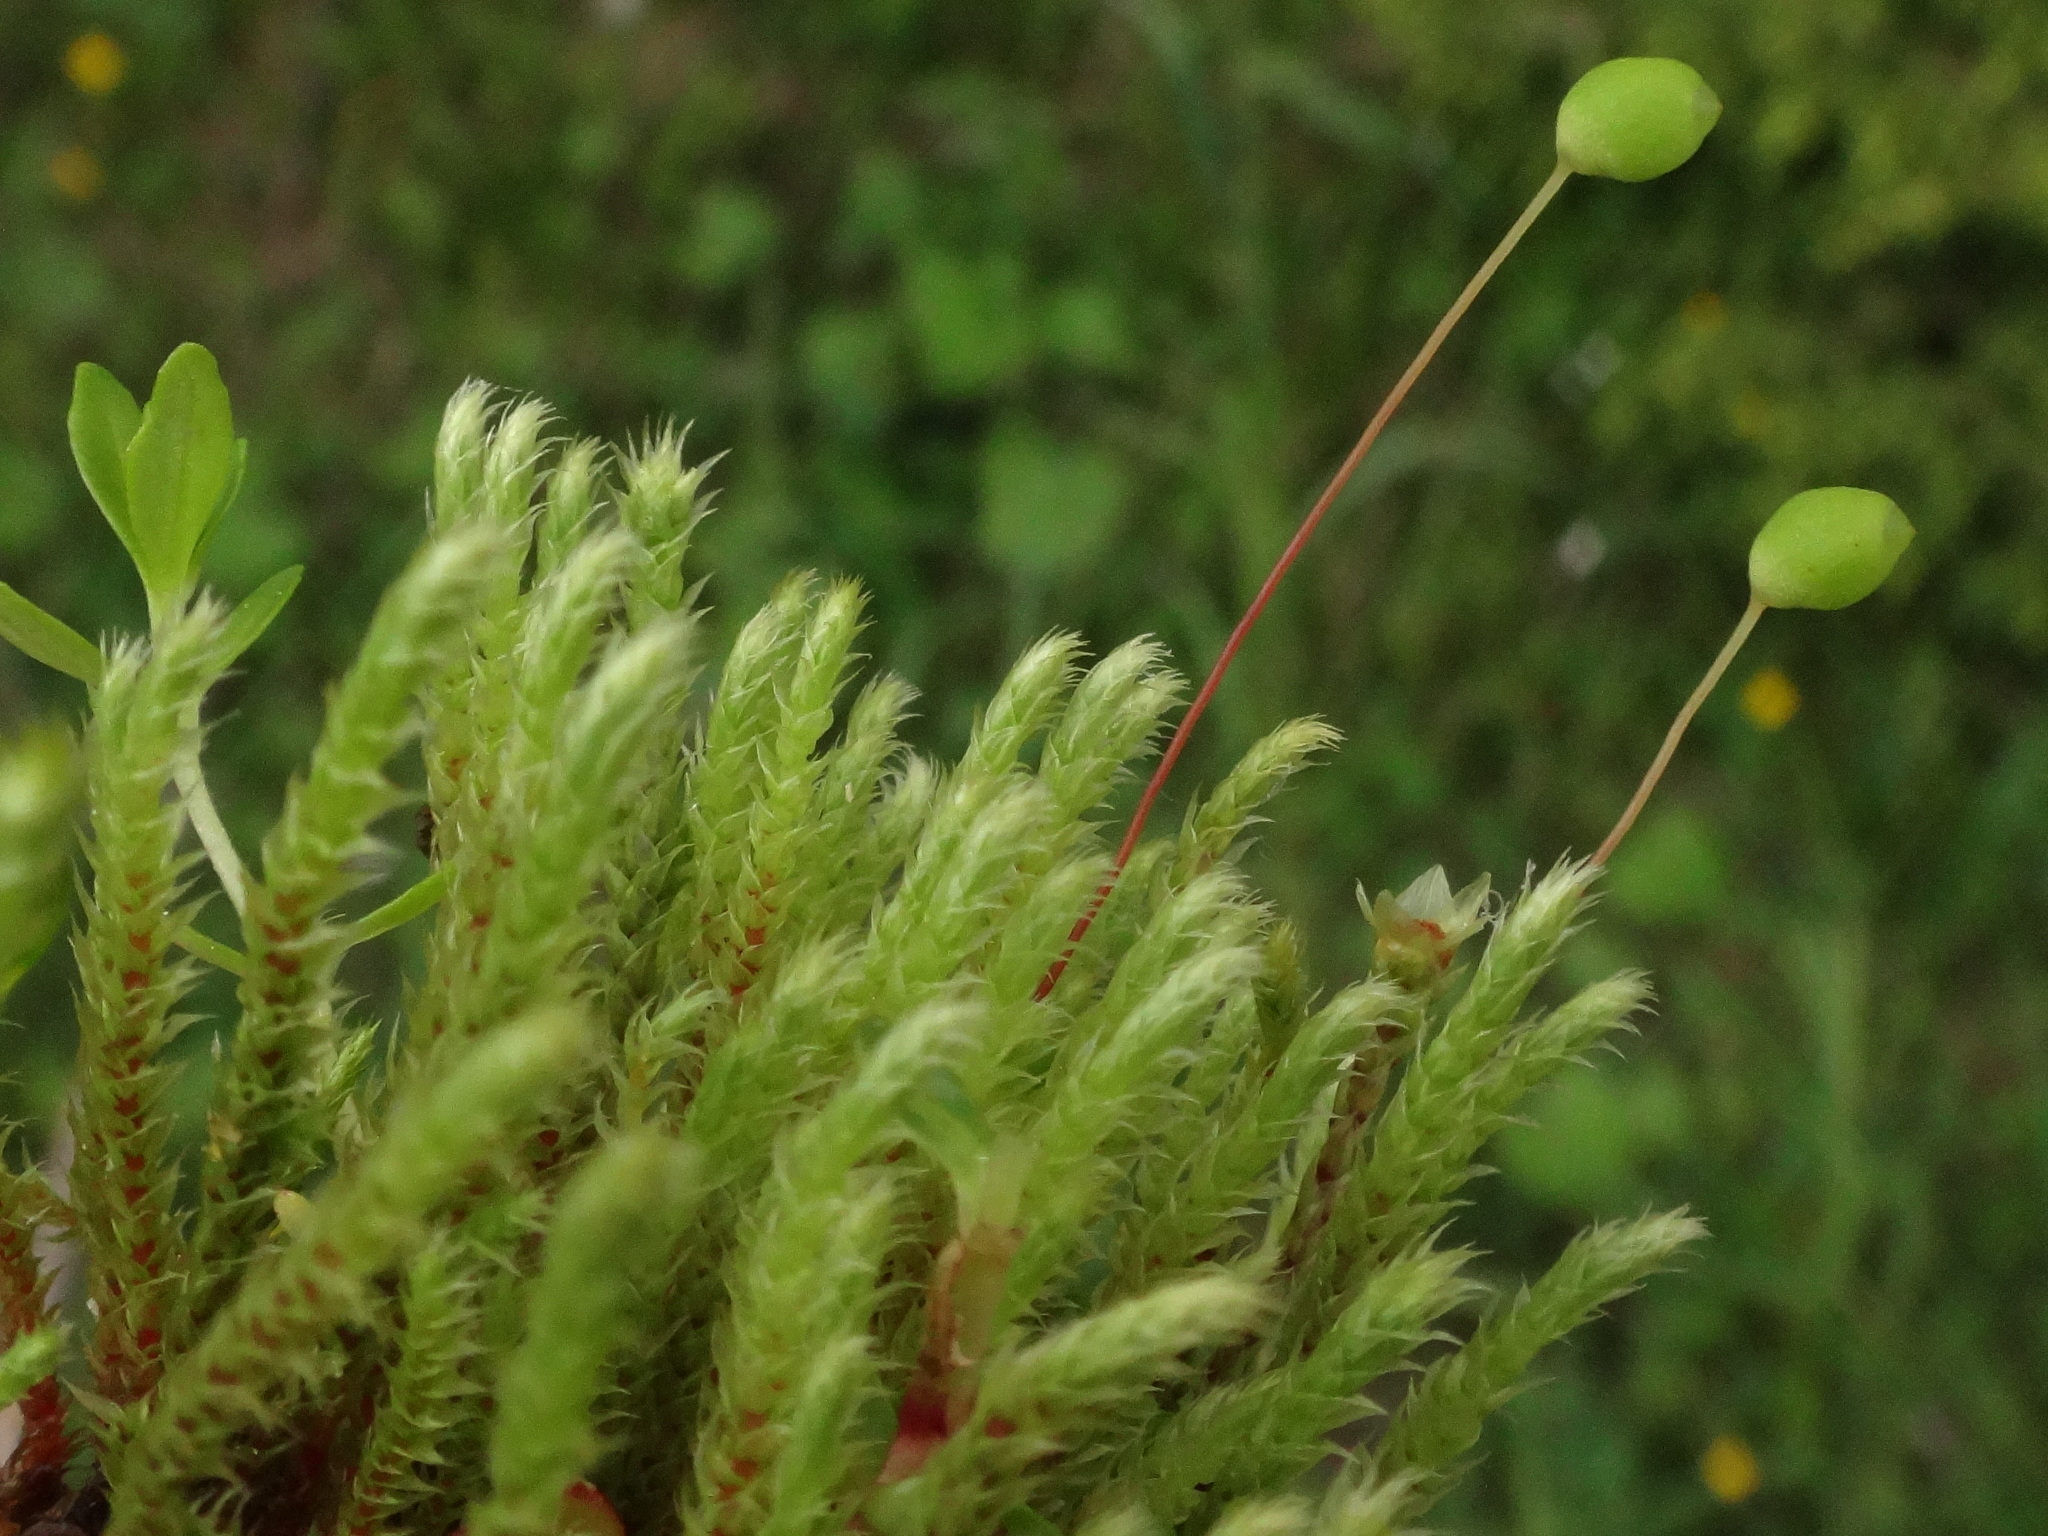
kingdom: Plantae
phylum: Bryophyta
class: Bryopsida
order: Bartramiales
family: Bartramiaceae
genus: Philonotis
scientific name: Philonotis fontana
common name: Fountain apple-moss
